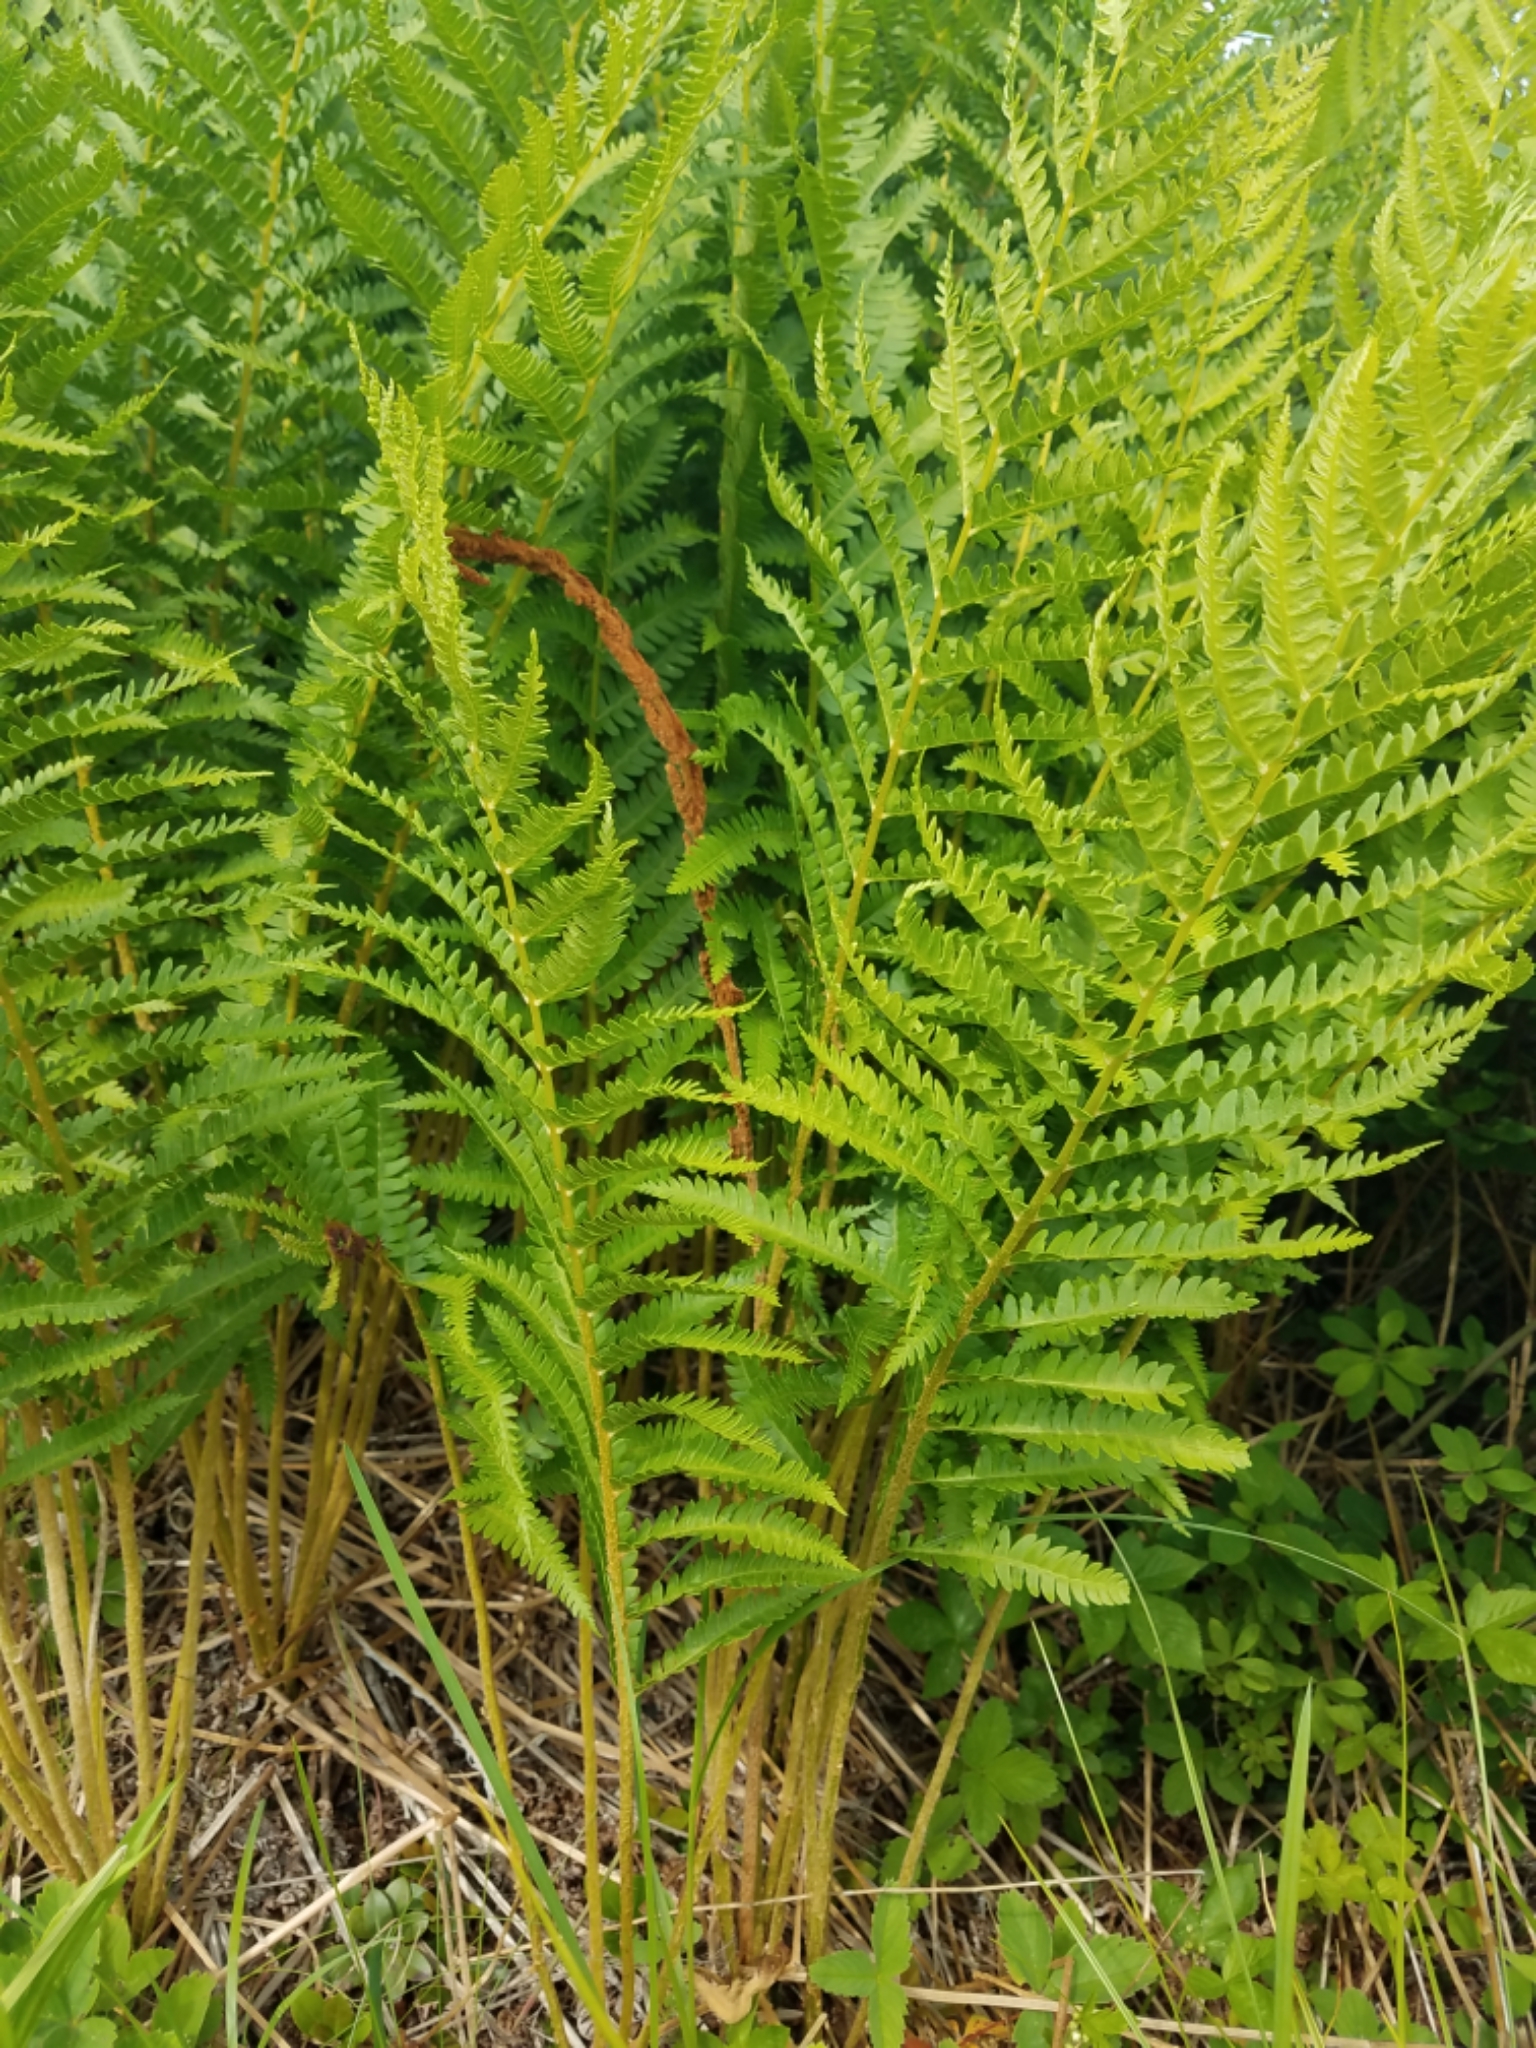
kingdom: Plantae
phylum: Tracheophyta
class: Polypodiopsida
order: Osmundales
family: Osmundaceae
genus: Osmundastrum
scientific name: Osmundastrum cinnamomeum
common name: Cinnamon fern
